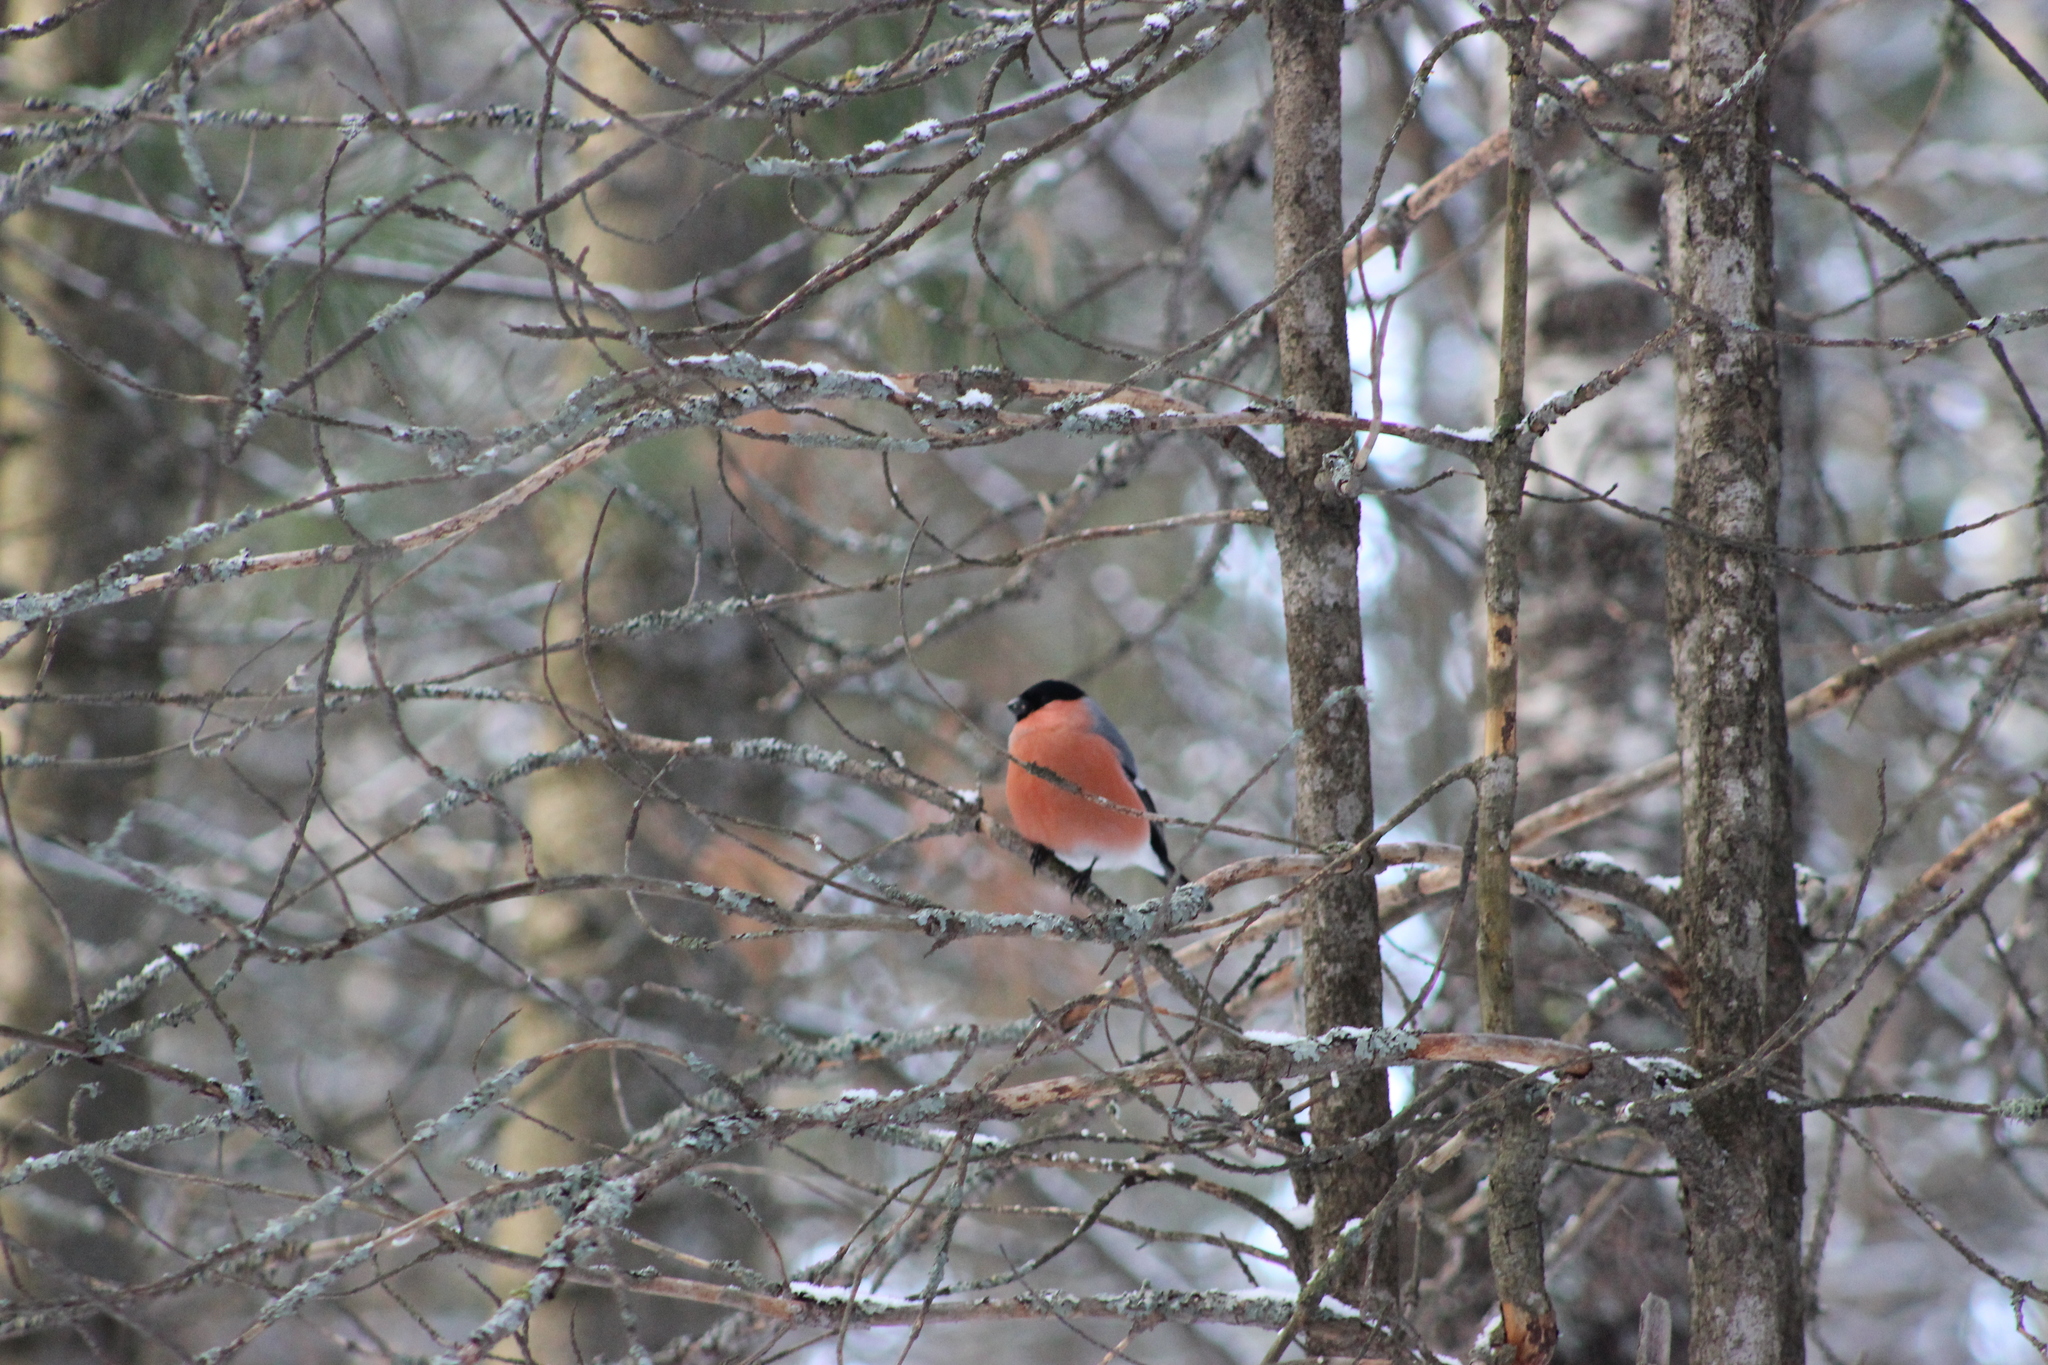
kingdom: Animalia
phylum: Chordata
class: Aves
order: Passeriformes
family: Fringillidae
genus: Pyrrhula
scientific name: Pyrrhula pyrrhula
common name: Eurasian bullfinch
